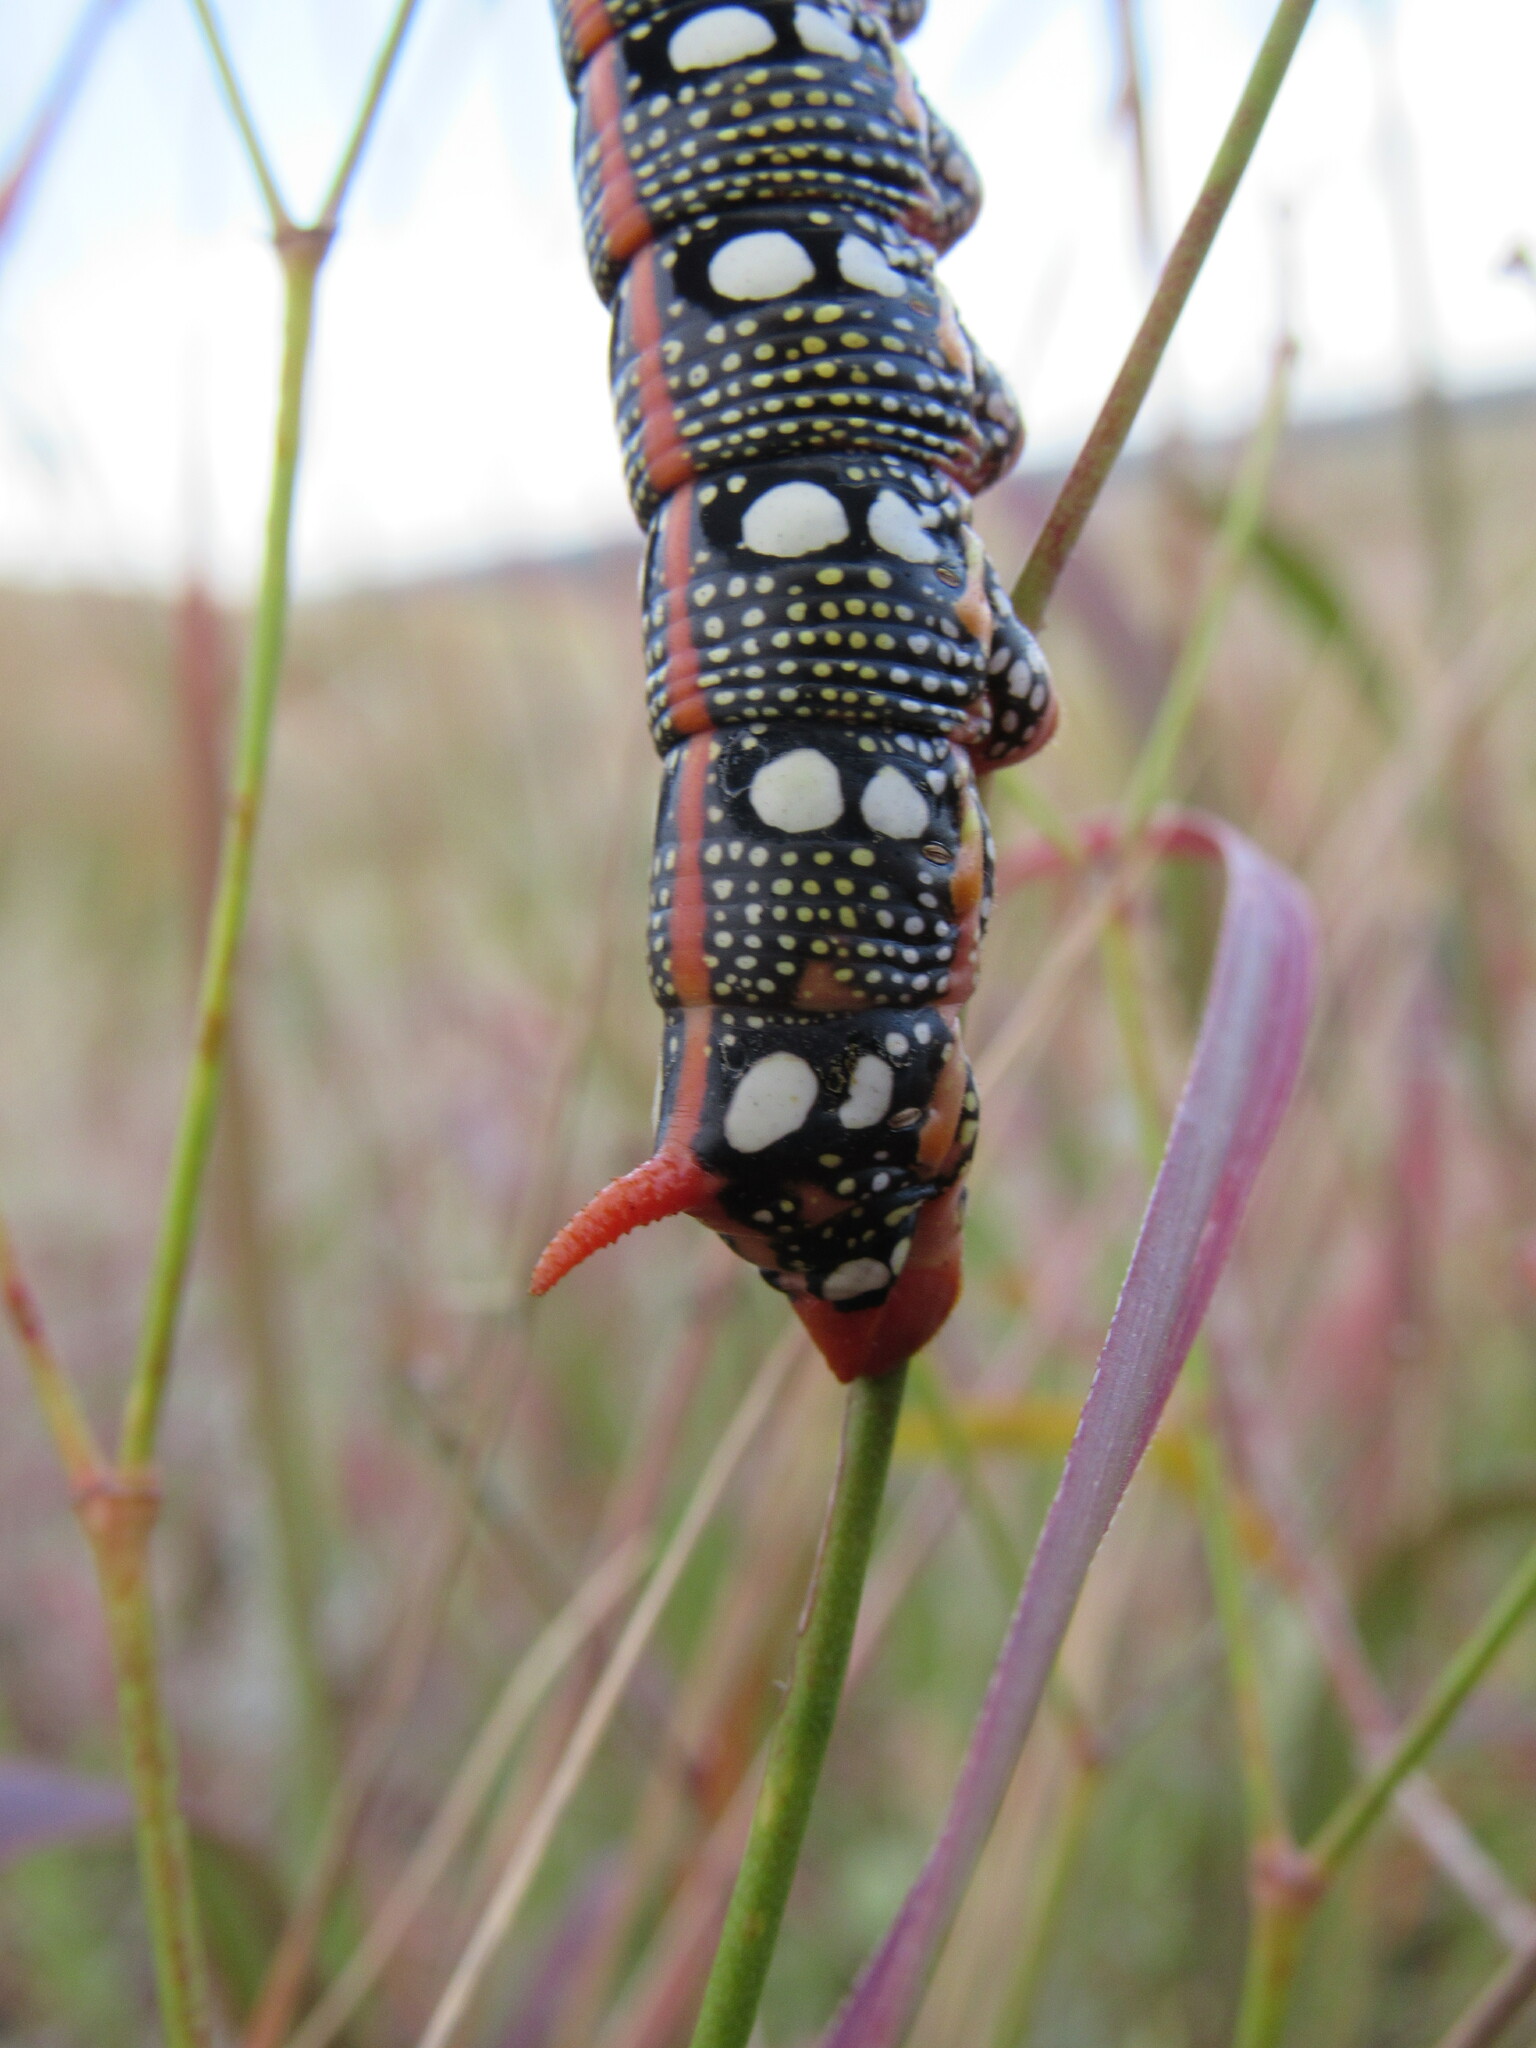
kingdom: Animalia
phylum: Arthropoda
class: Insecta
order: Lepidoptera
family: Sphingidae
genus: Hyles
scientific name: Hyles euphorbiae
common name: Spurge hawk-moth
